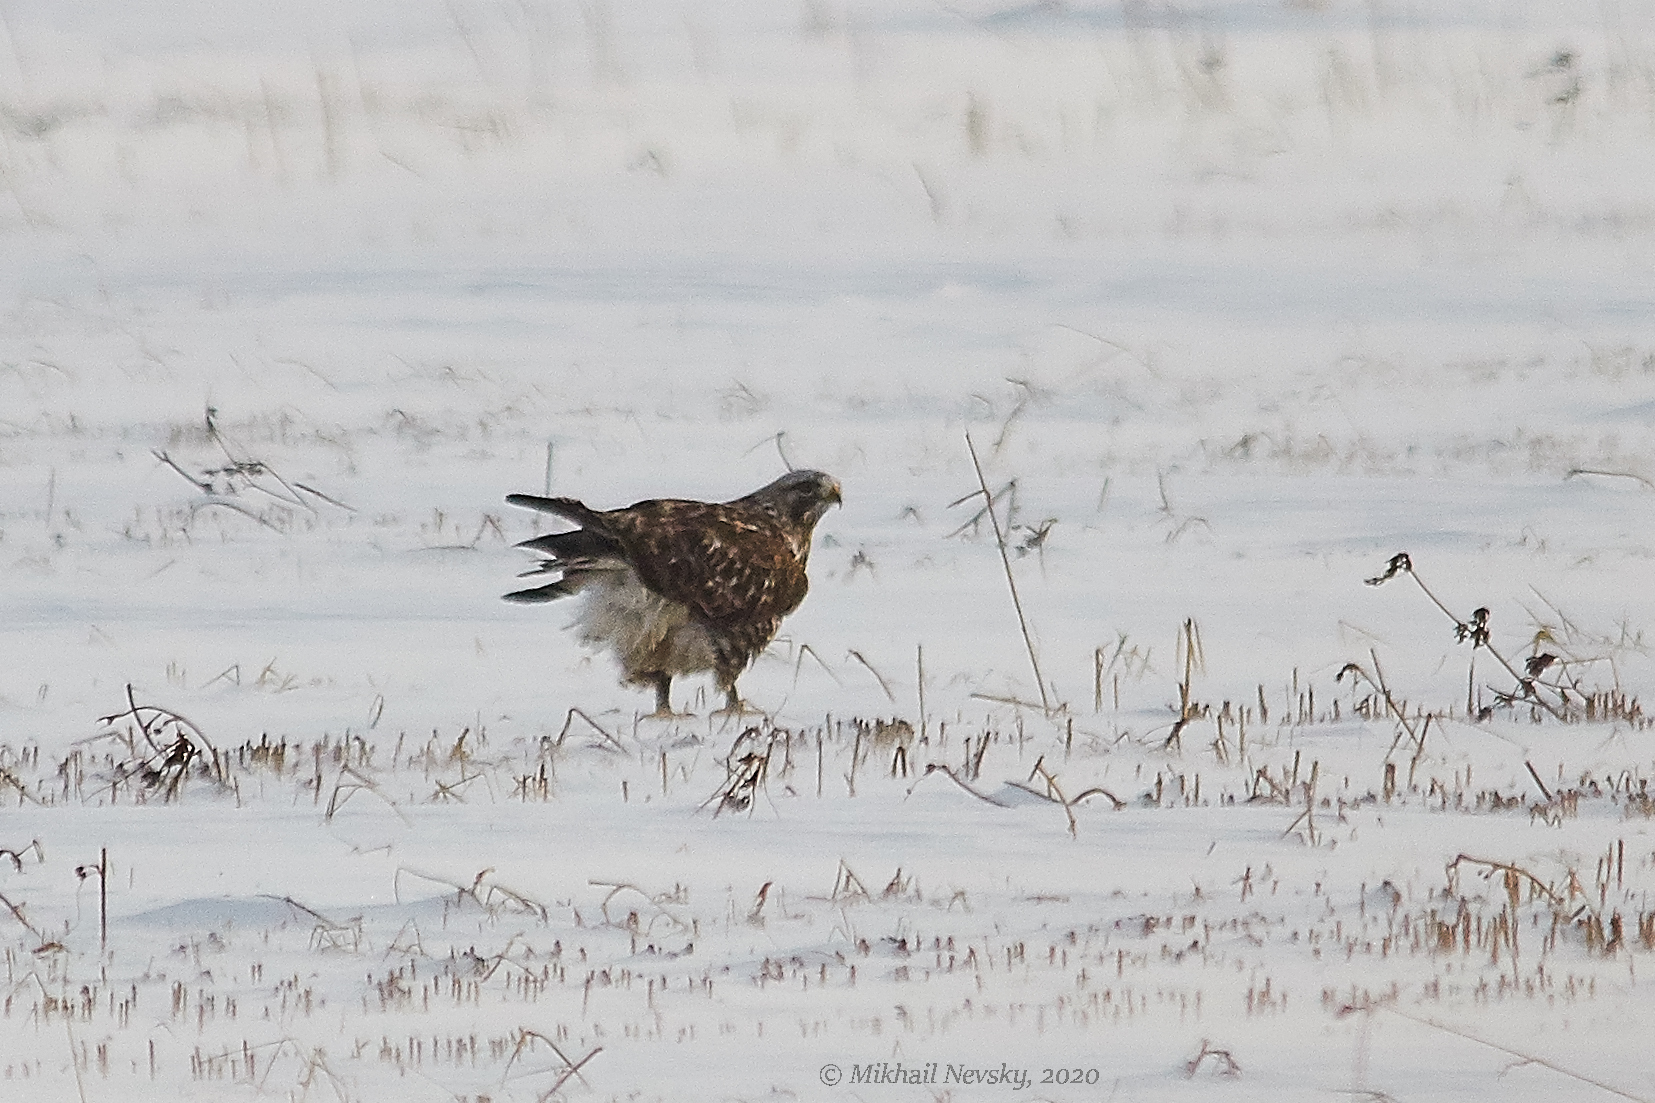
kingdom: Animalia
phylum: Chordata
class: Aves
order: Accipitriformes
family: Accipitridae
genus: Buteo
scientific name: Buteo lagopus
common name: Rough-legged buzzard
